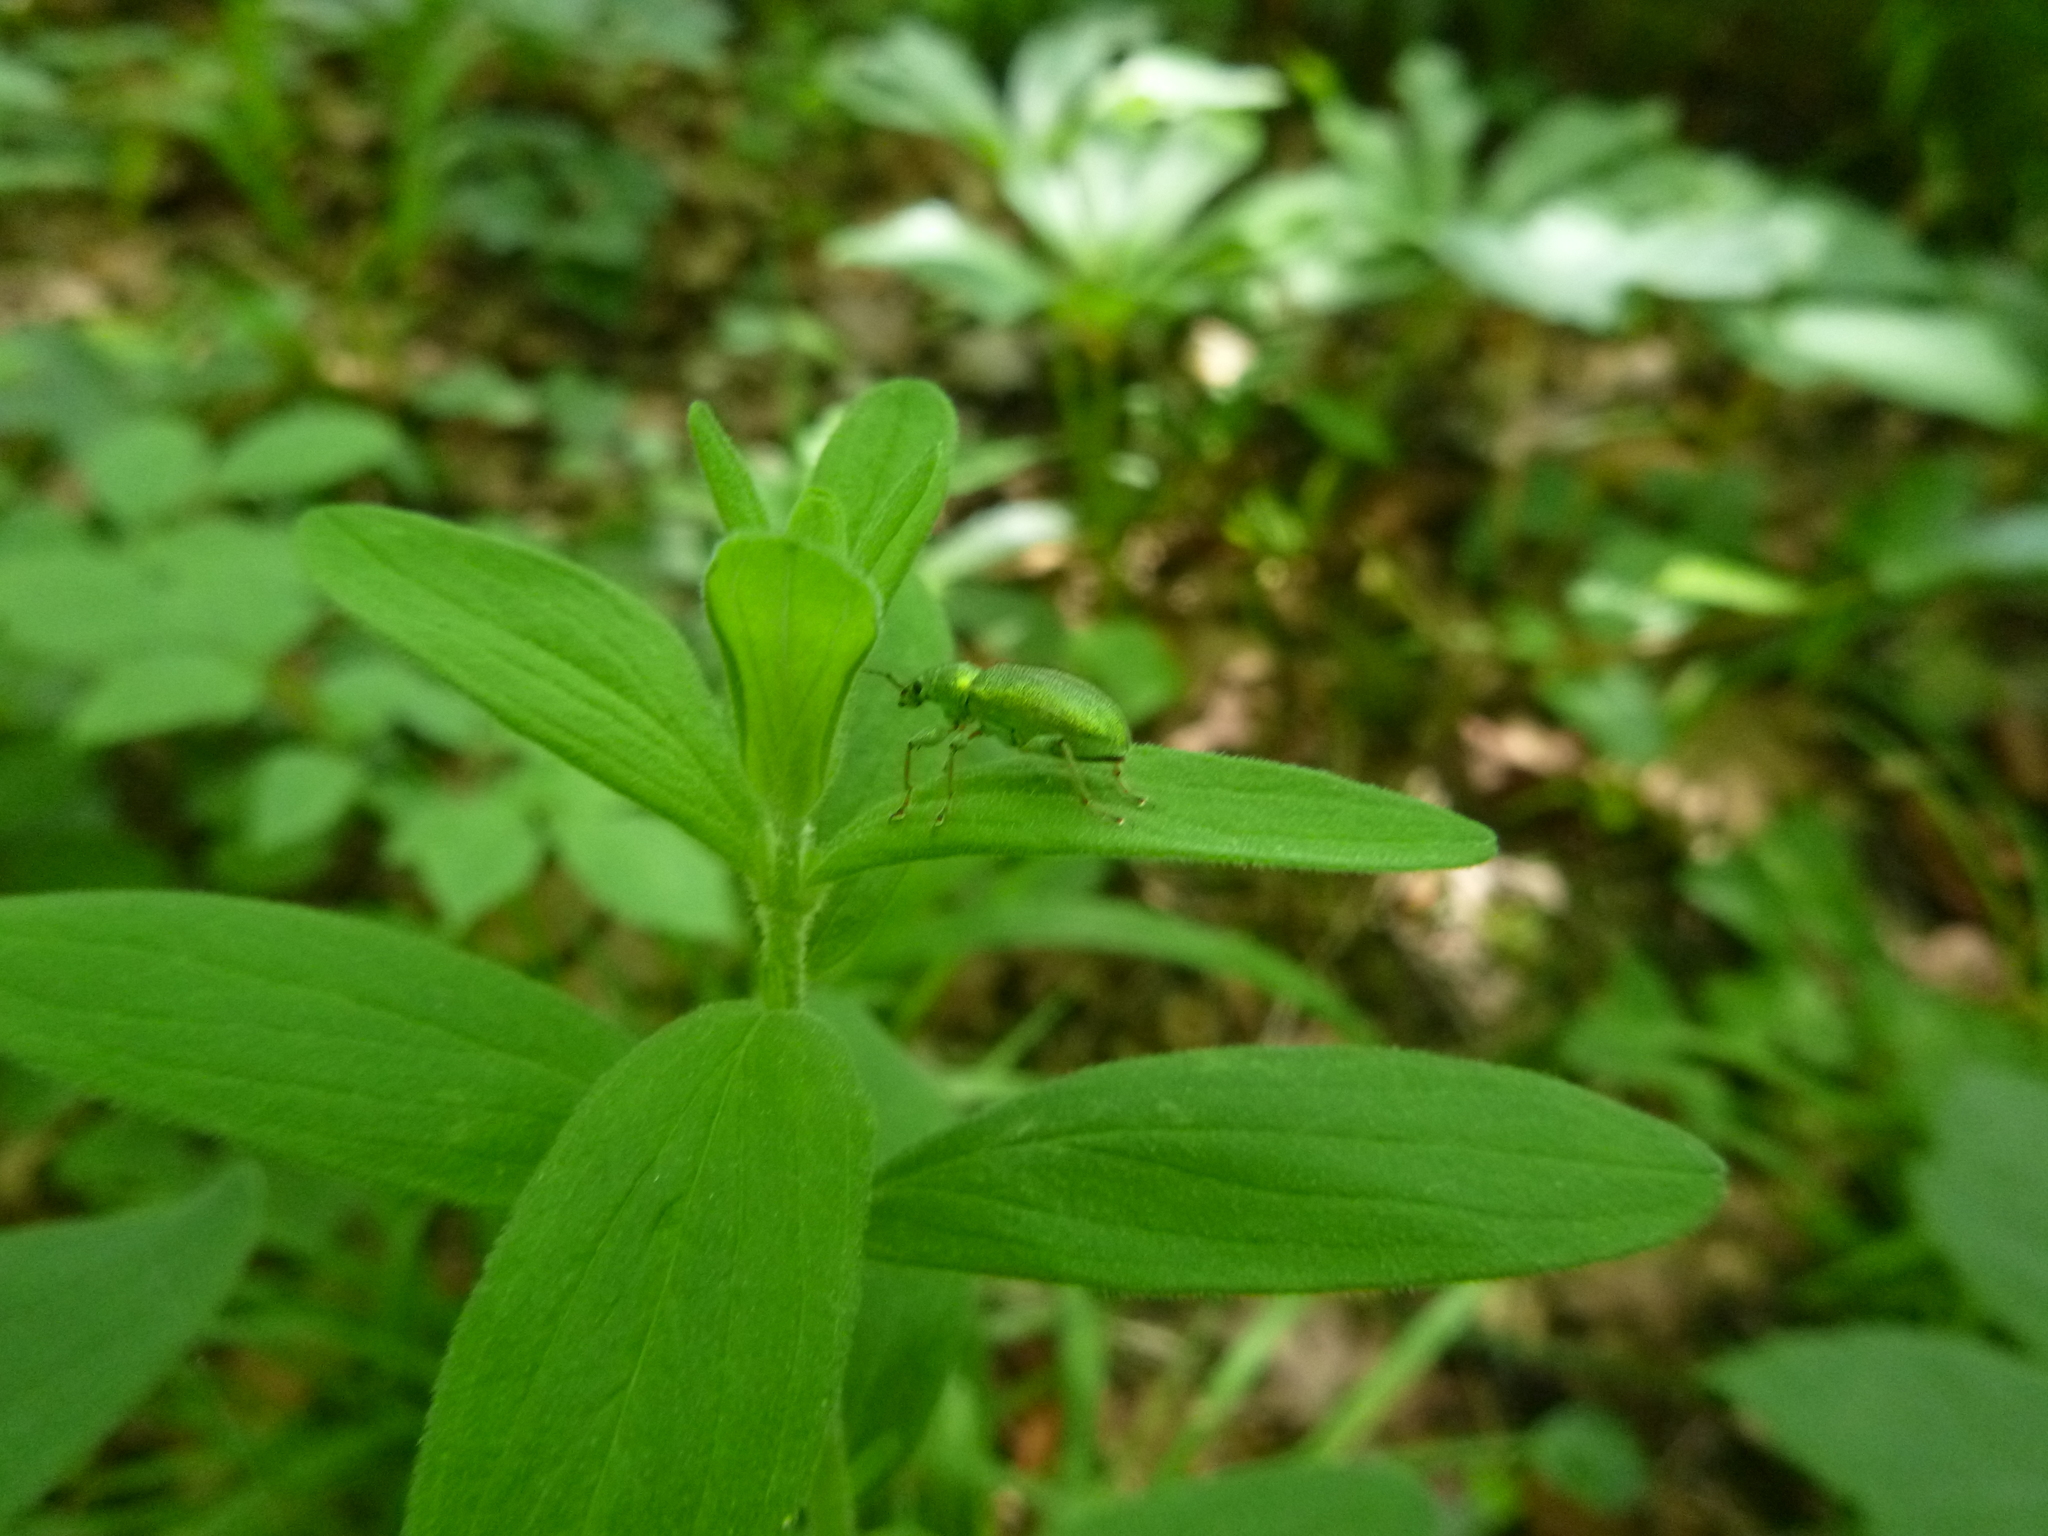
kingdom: Plantae
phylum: Tracheophyta
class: Magnoliopsida
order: Malpighiales
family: Hypericaceae
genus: Hypericum
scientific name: Hypericum hirsutum
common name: Hairy st. john's-wort
